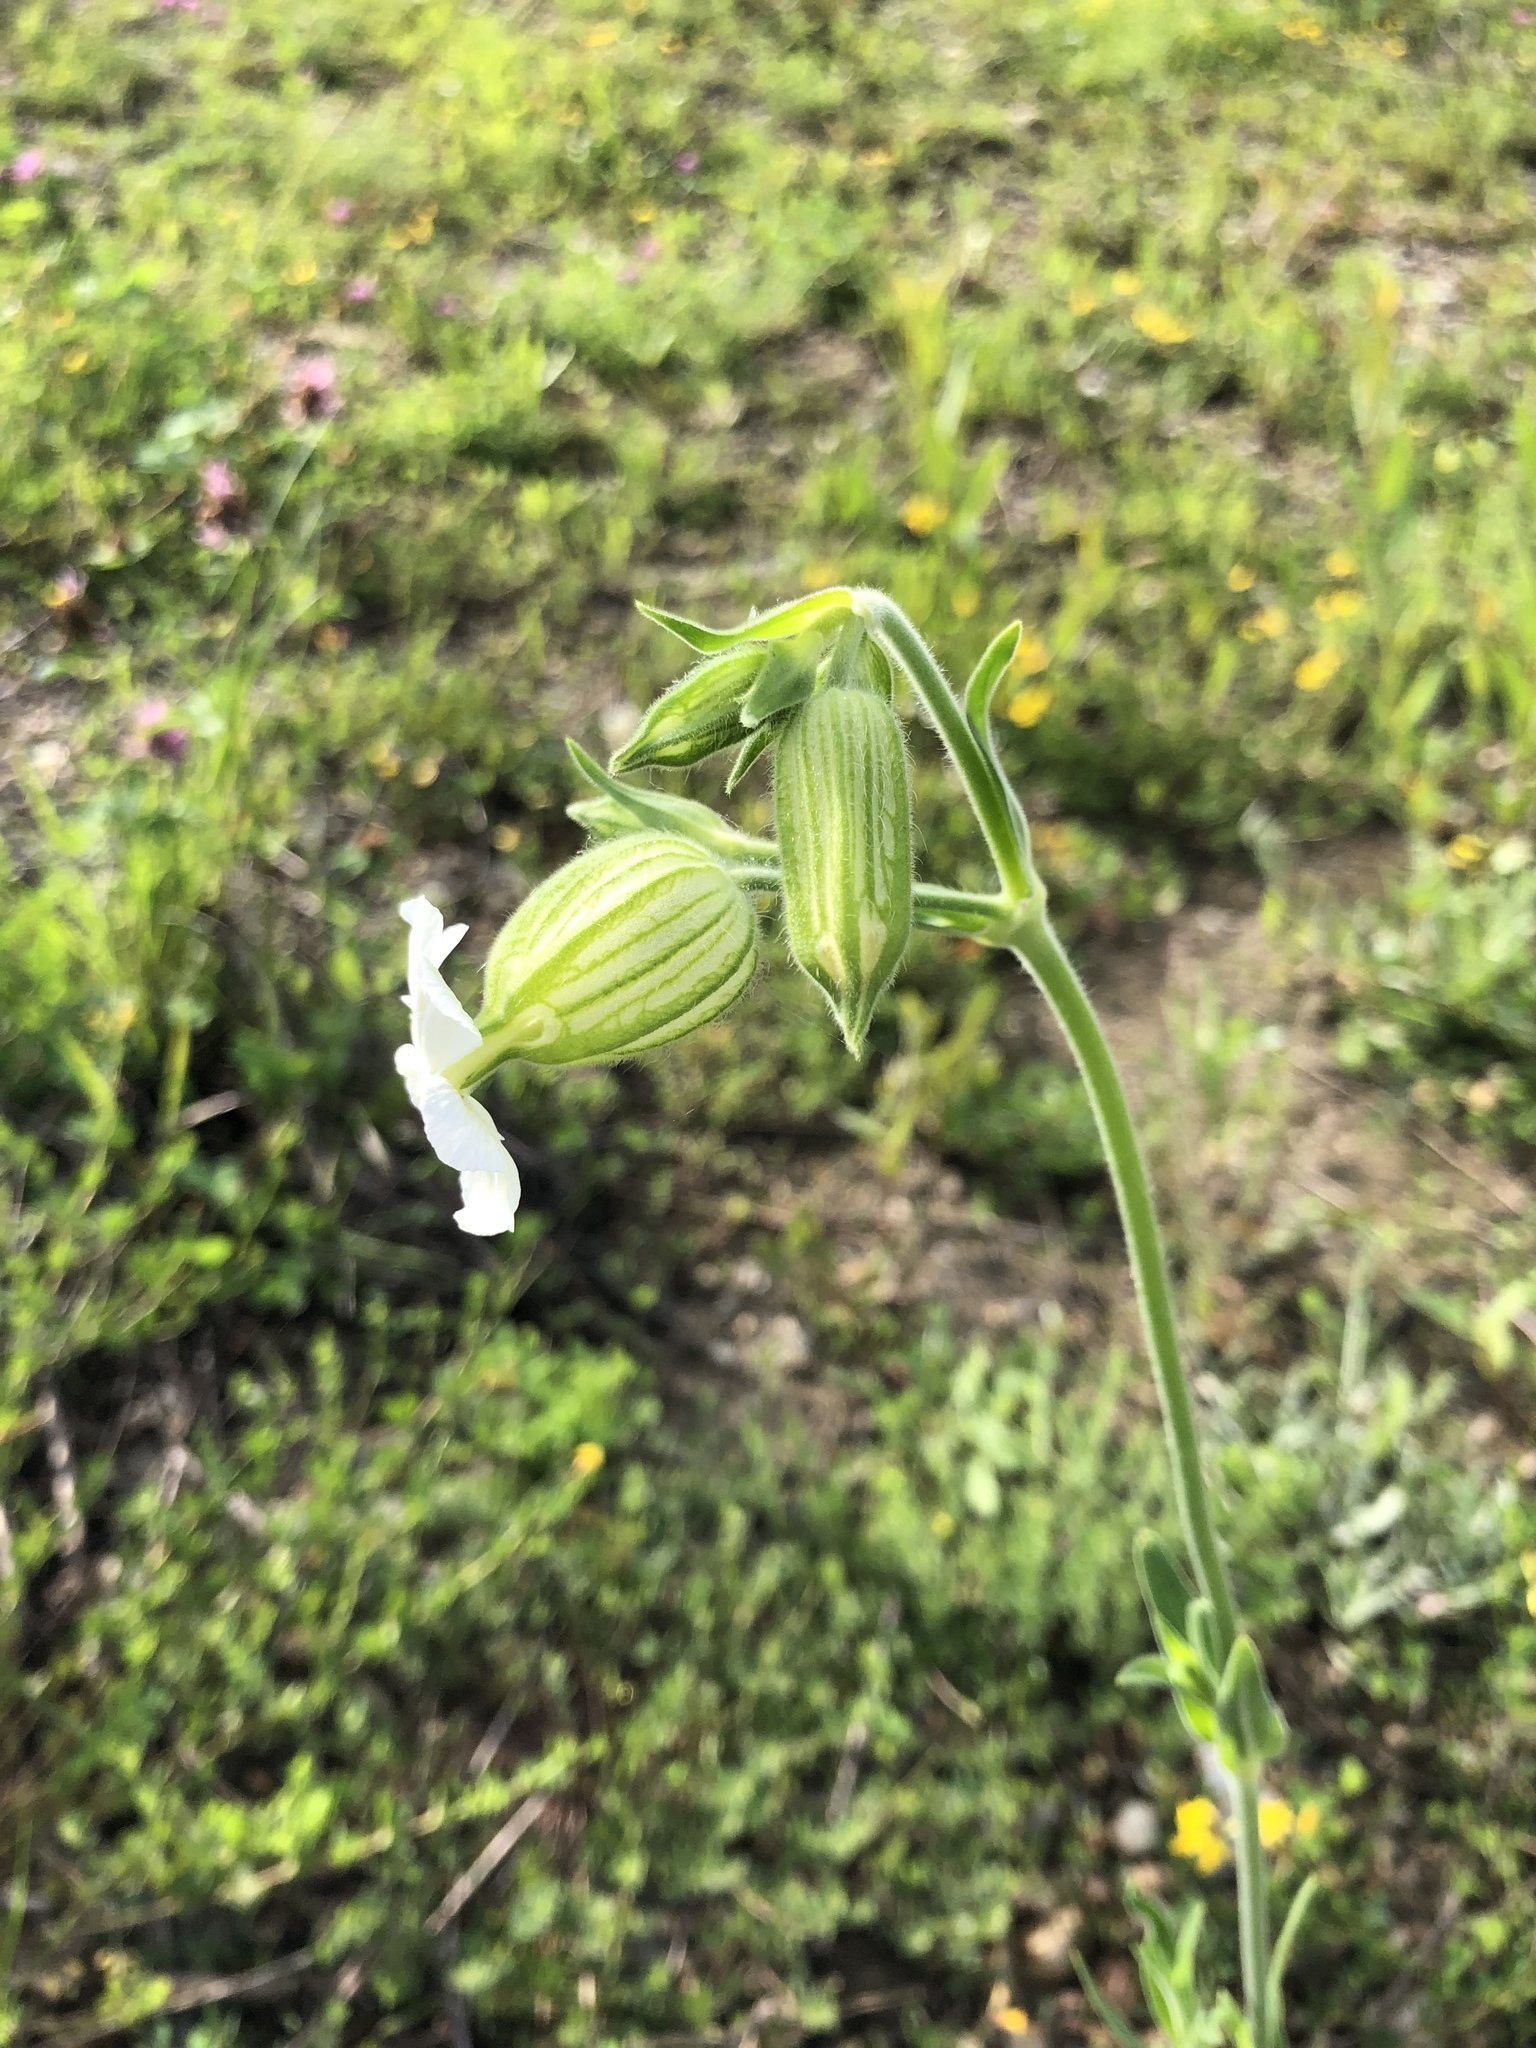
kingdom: Plantae
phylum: Tracheophyta
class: Magnoliopsida
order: Caryophyllales
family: Caryophyllaceae
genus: Silene
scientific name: Silene latifolia
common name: White campion
